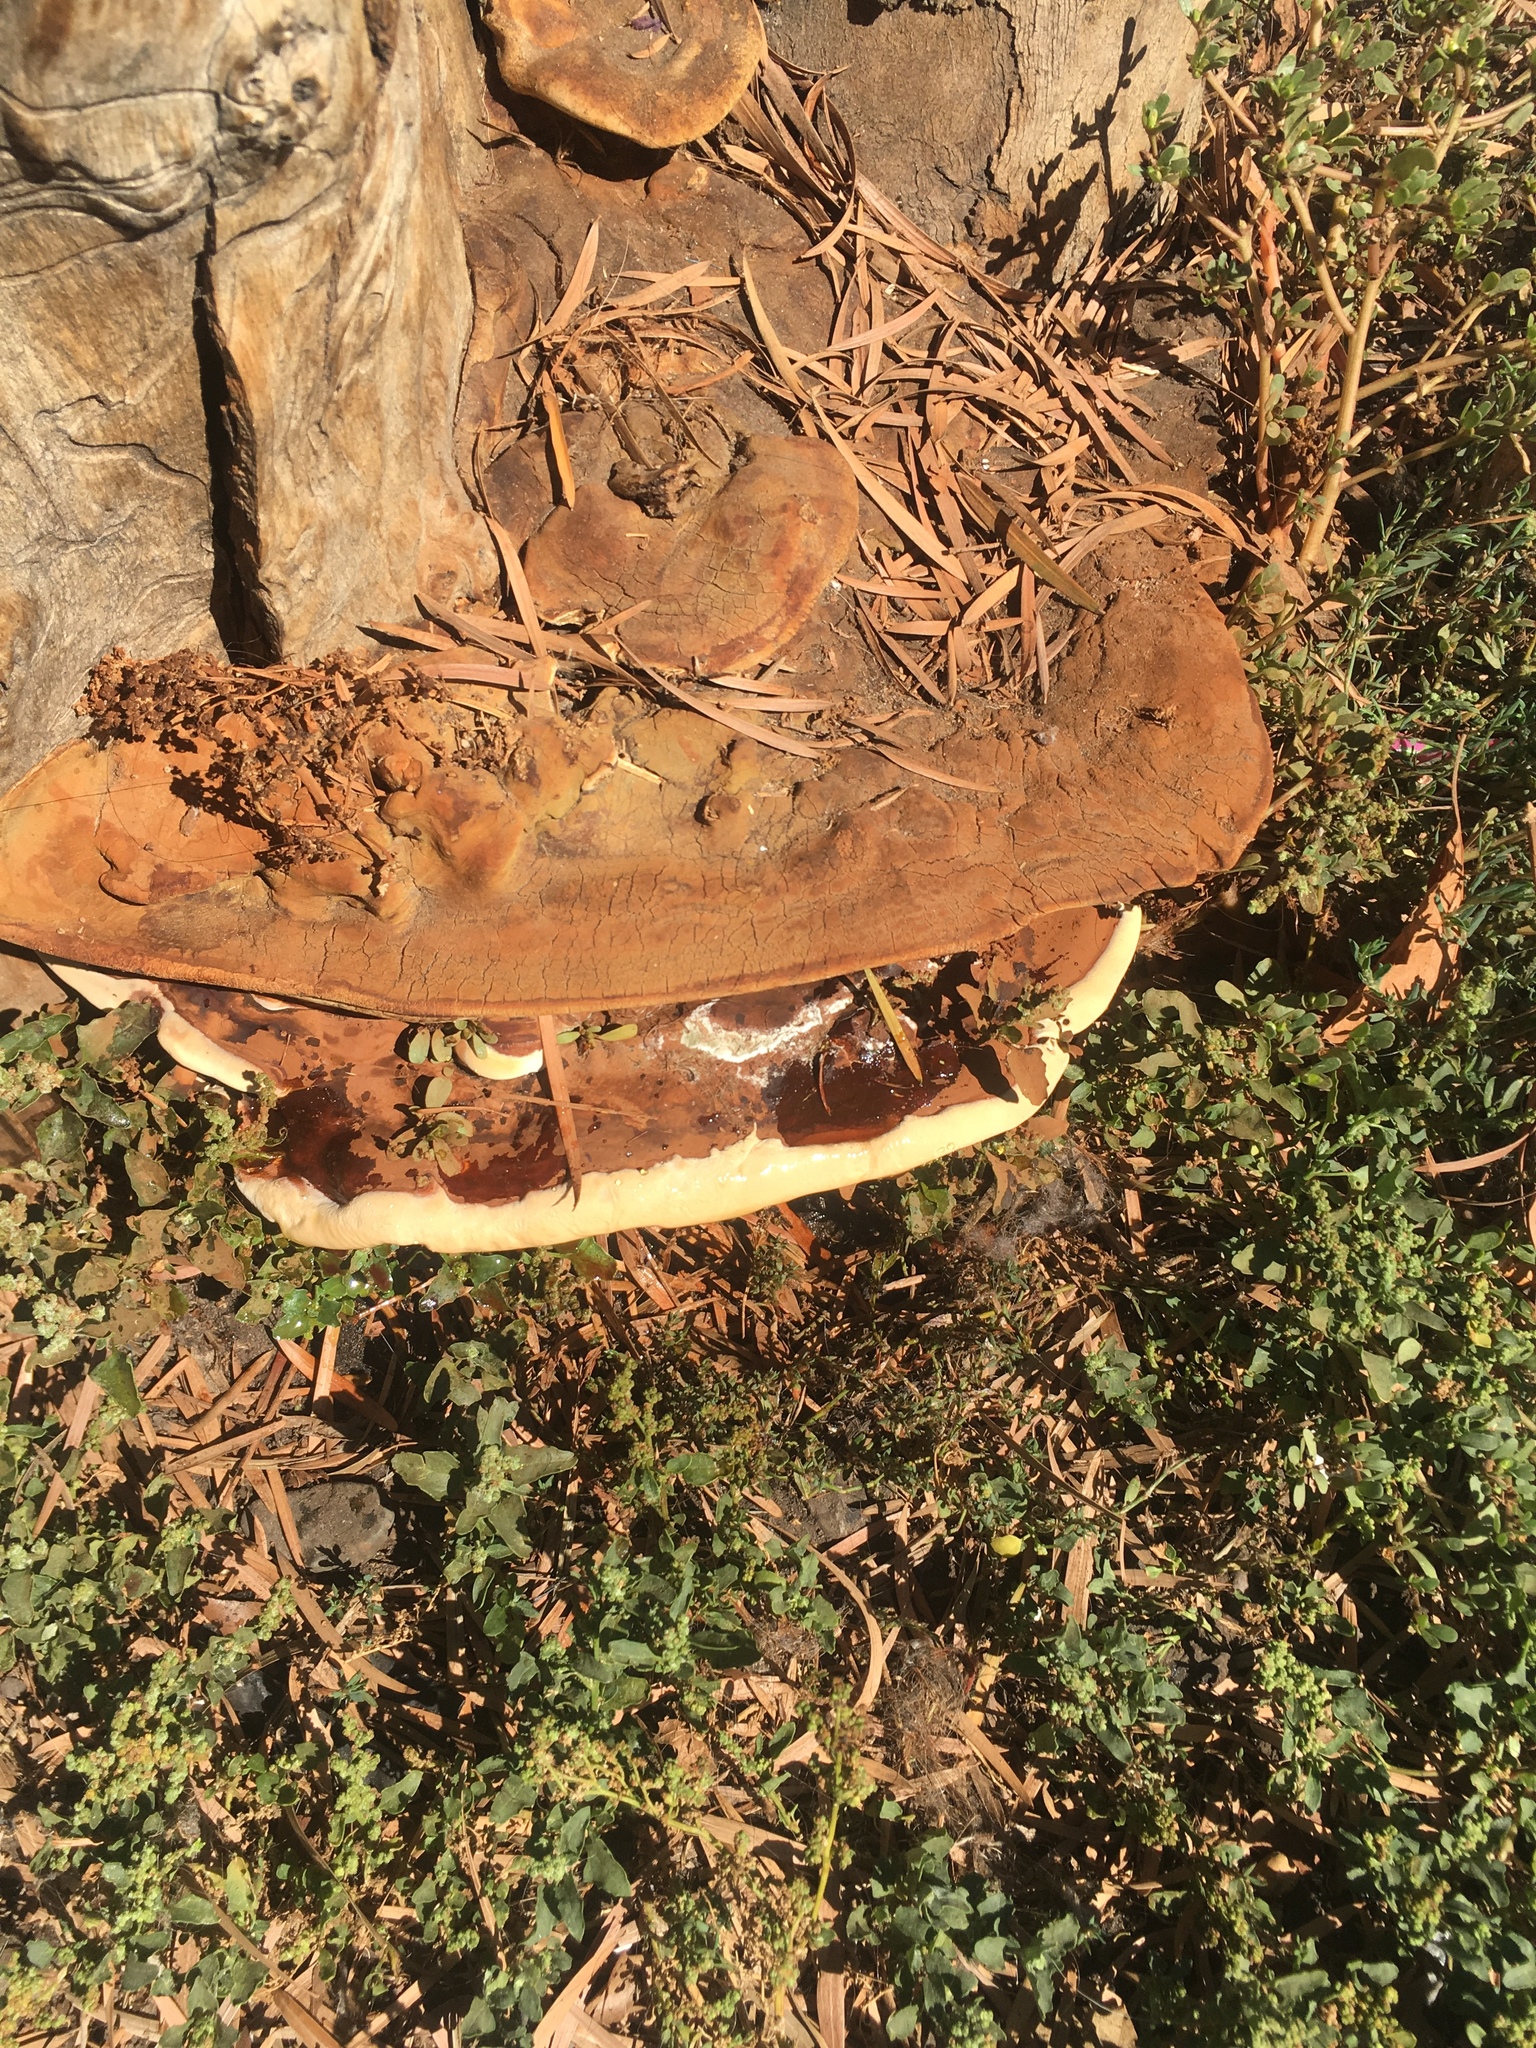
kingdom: Fungi
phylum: Basidiomycota
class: Agaricomycetes
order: Polyporales
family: Polyporaceae
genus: Ganoderma
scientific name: Ganoderma applanatum
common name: Artist's bracket
